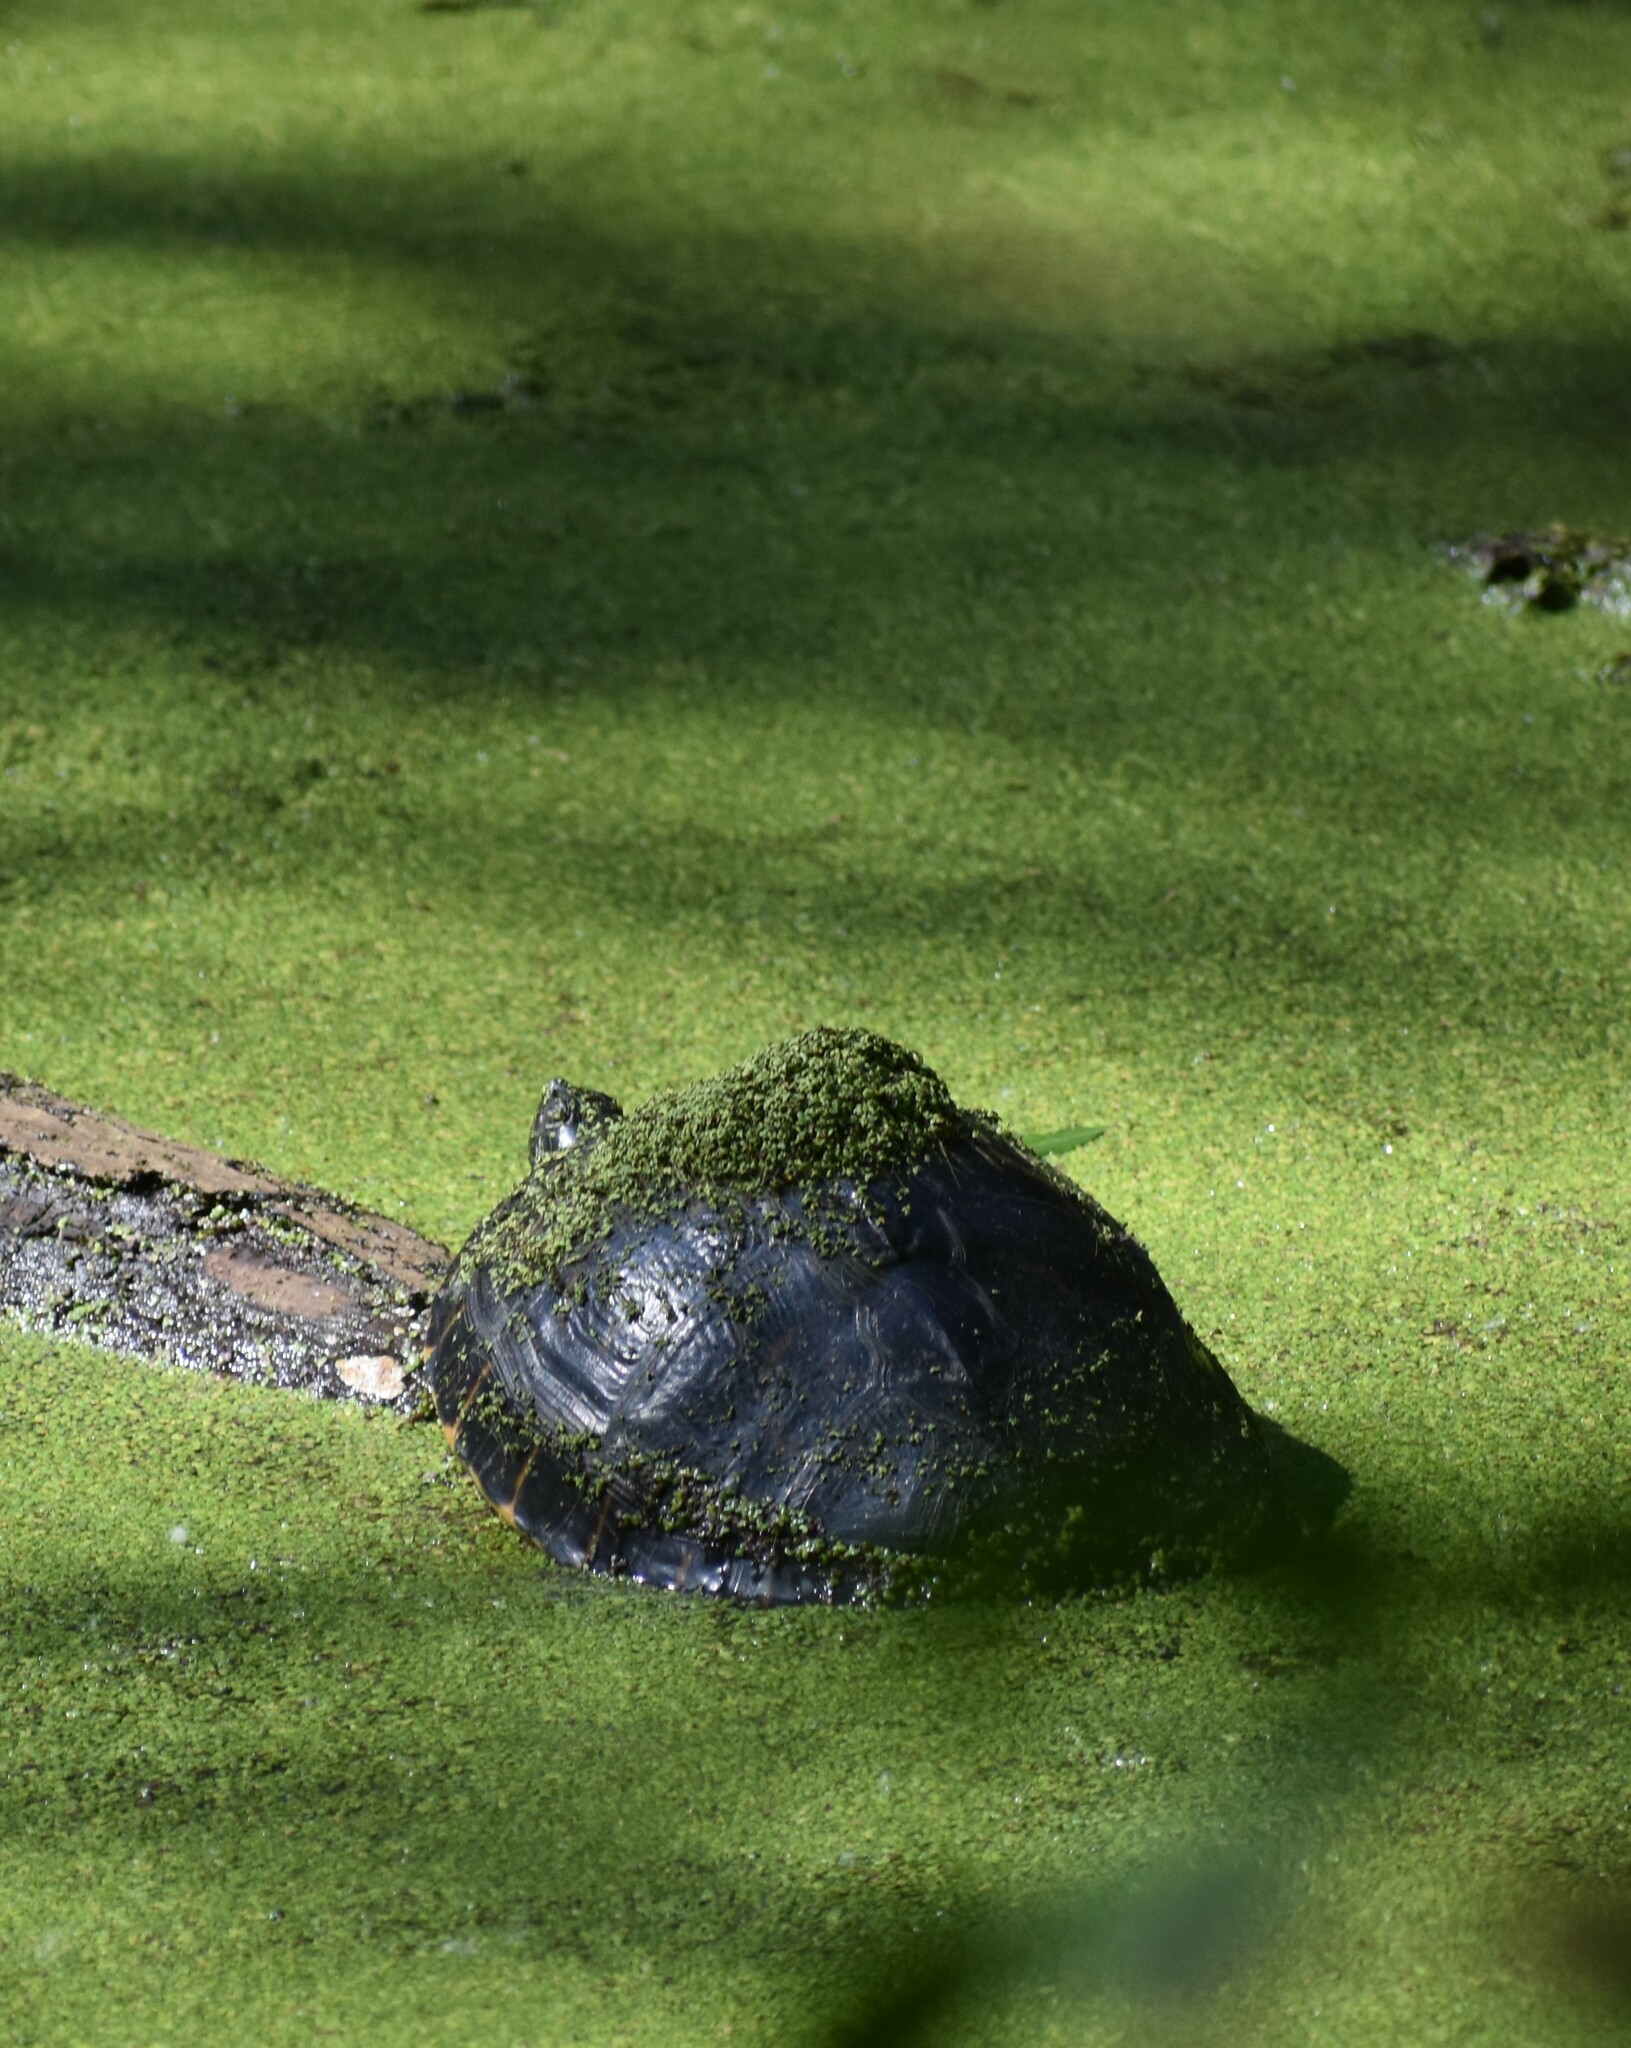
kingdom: Animalia
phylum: Chordata
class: Testudines
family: Emydidae
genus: Pseudemys
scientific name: Pseudemys concinna
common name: Eastern river cooter
